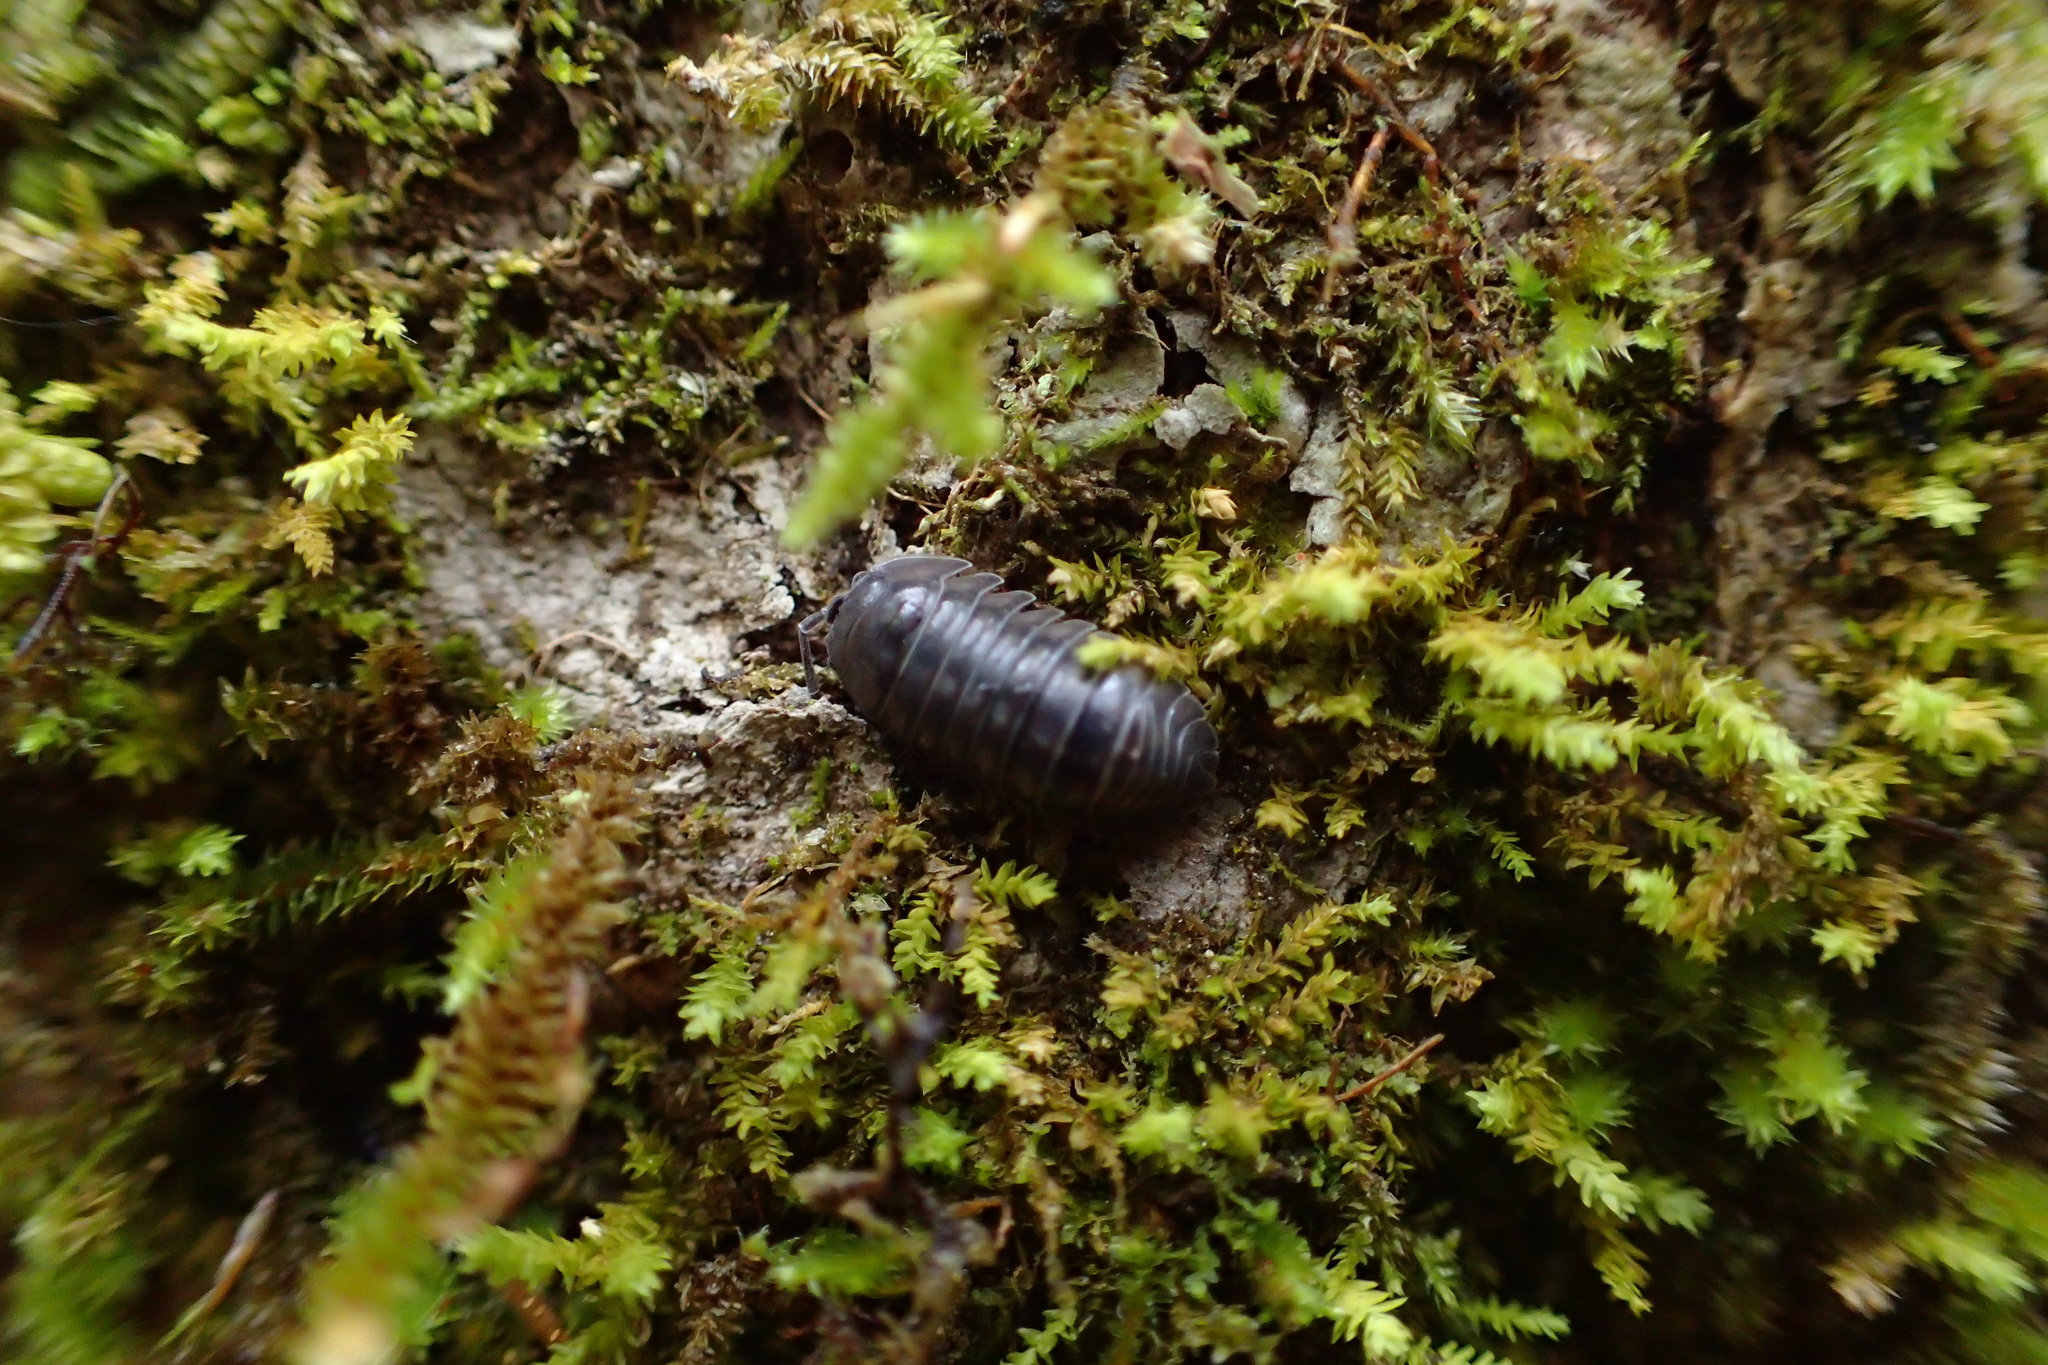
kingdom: Animalia
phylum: Arthropoda
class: Malacostraca
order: Isopoda
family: Armadillidiidae
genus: Armadillidium
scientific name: Armadillidium nasatum
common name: Isopod
